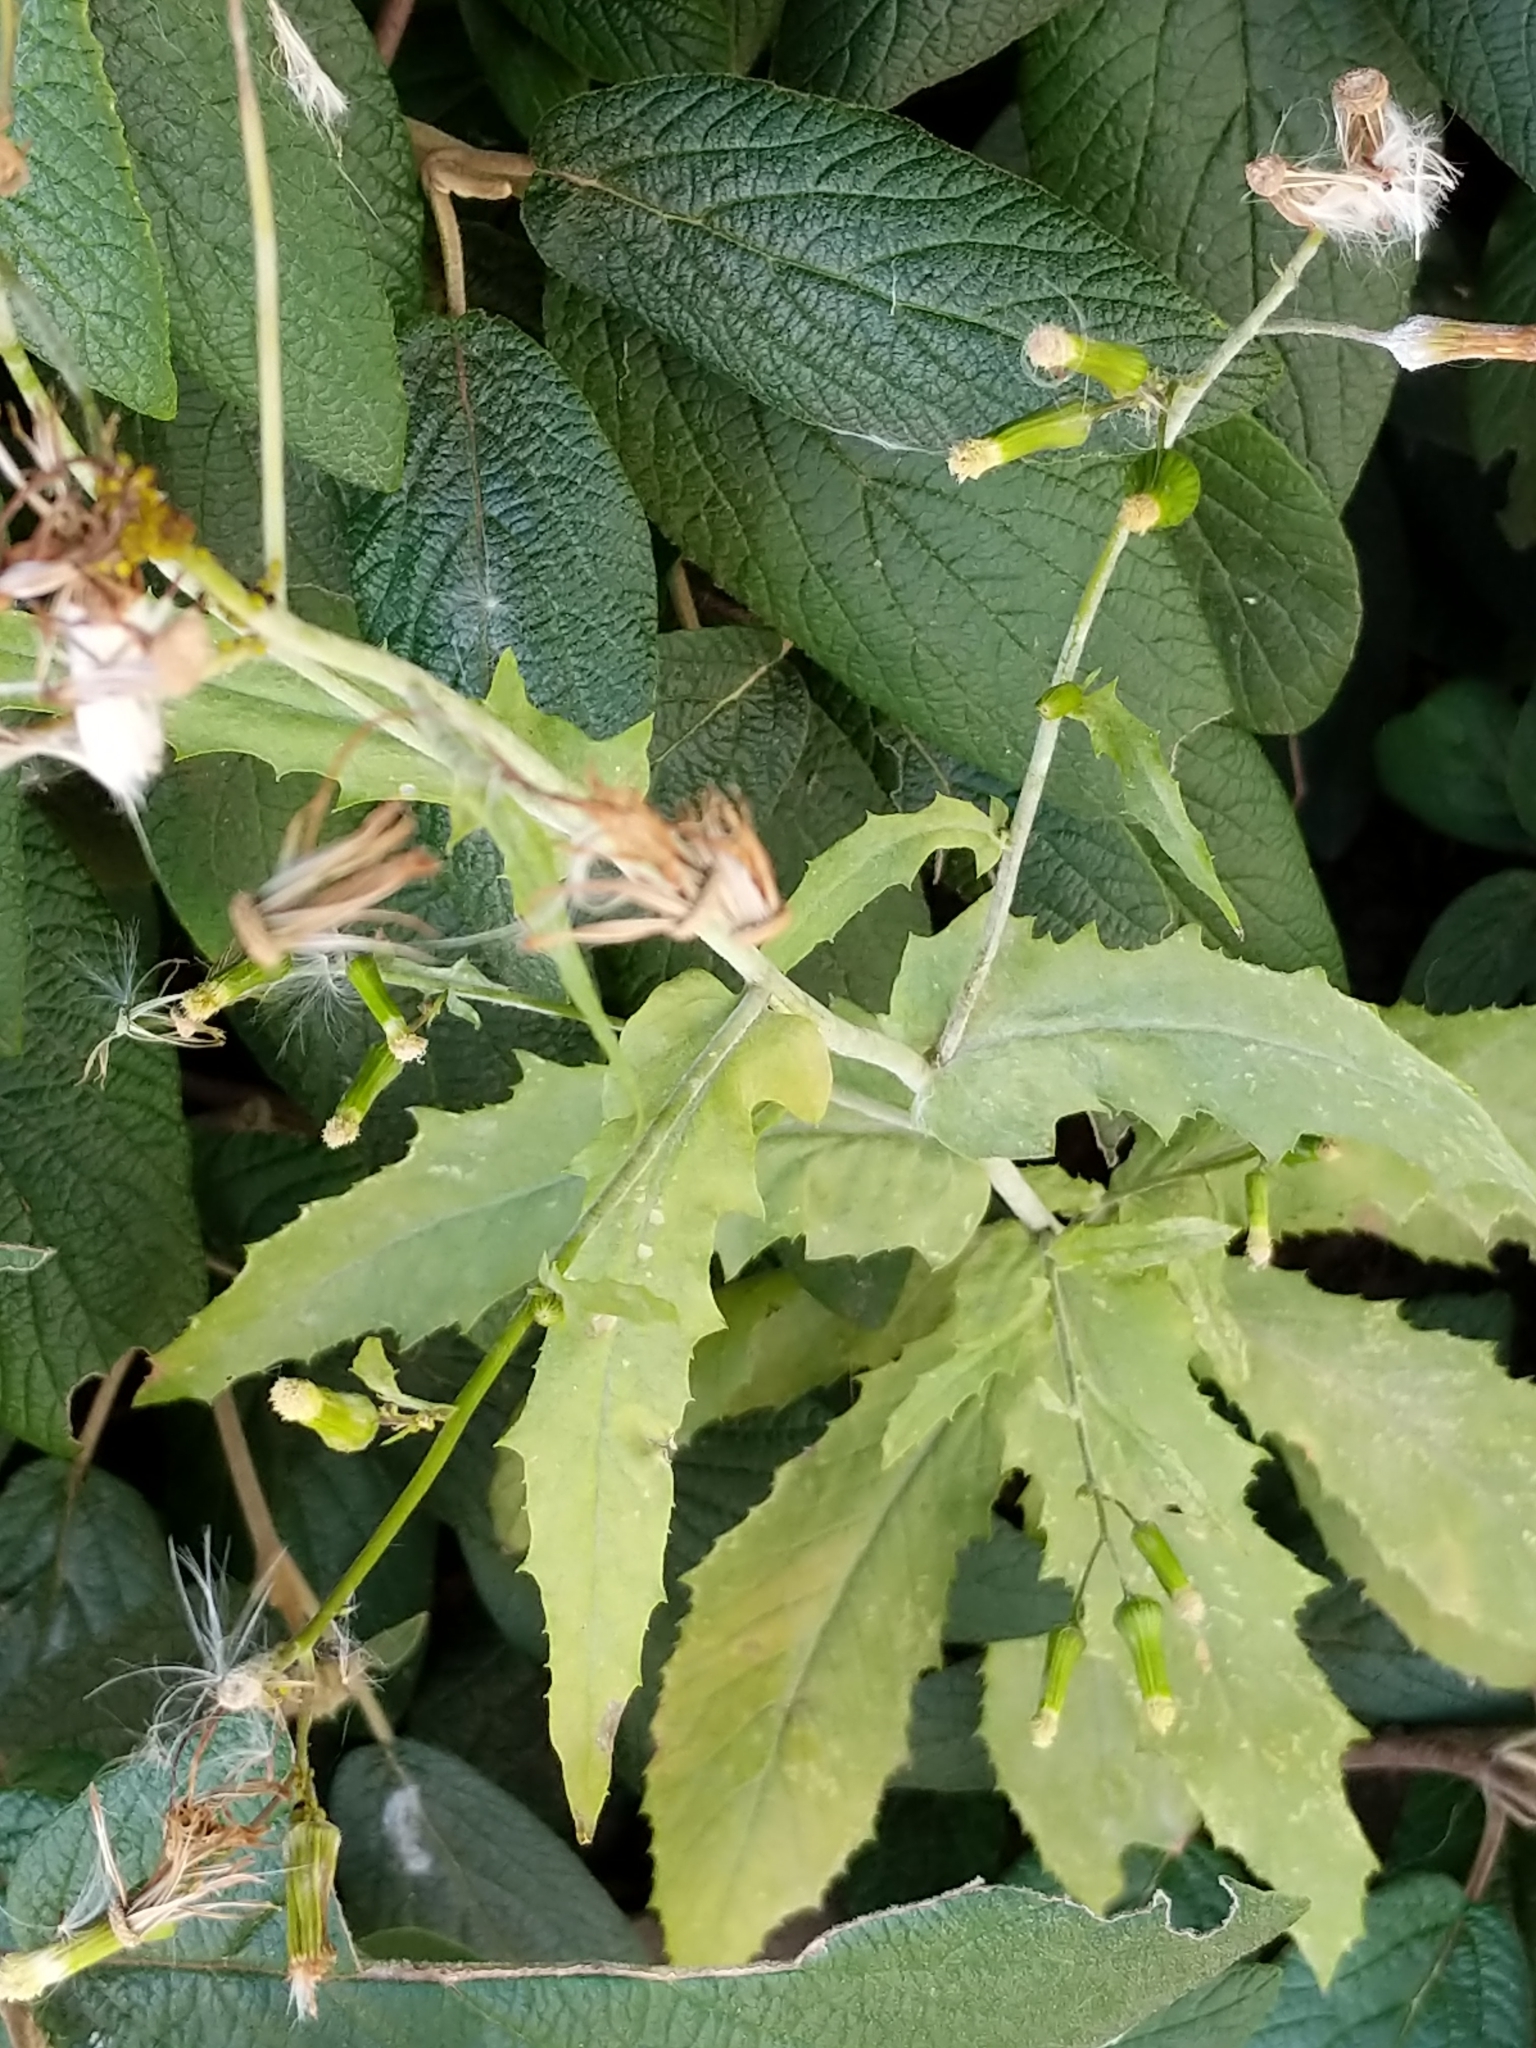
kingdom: Plantae
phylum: Tracheophyta
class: Magnoliopsida
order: Asterales
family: Asteraceae
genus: Erechtites
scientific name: Erechtites hieraciifolius
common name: American burnweed
